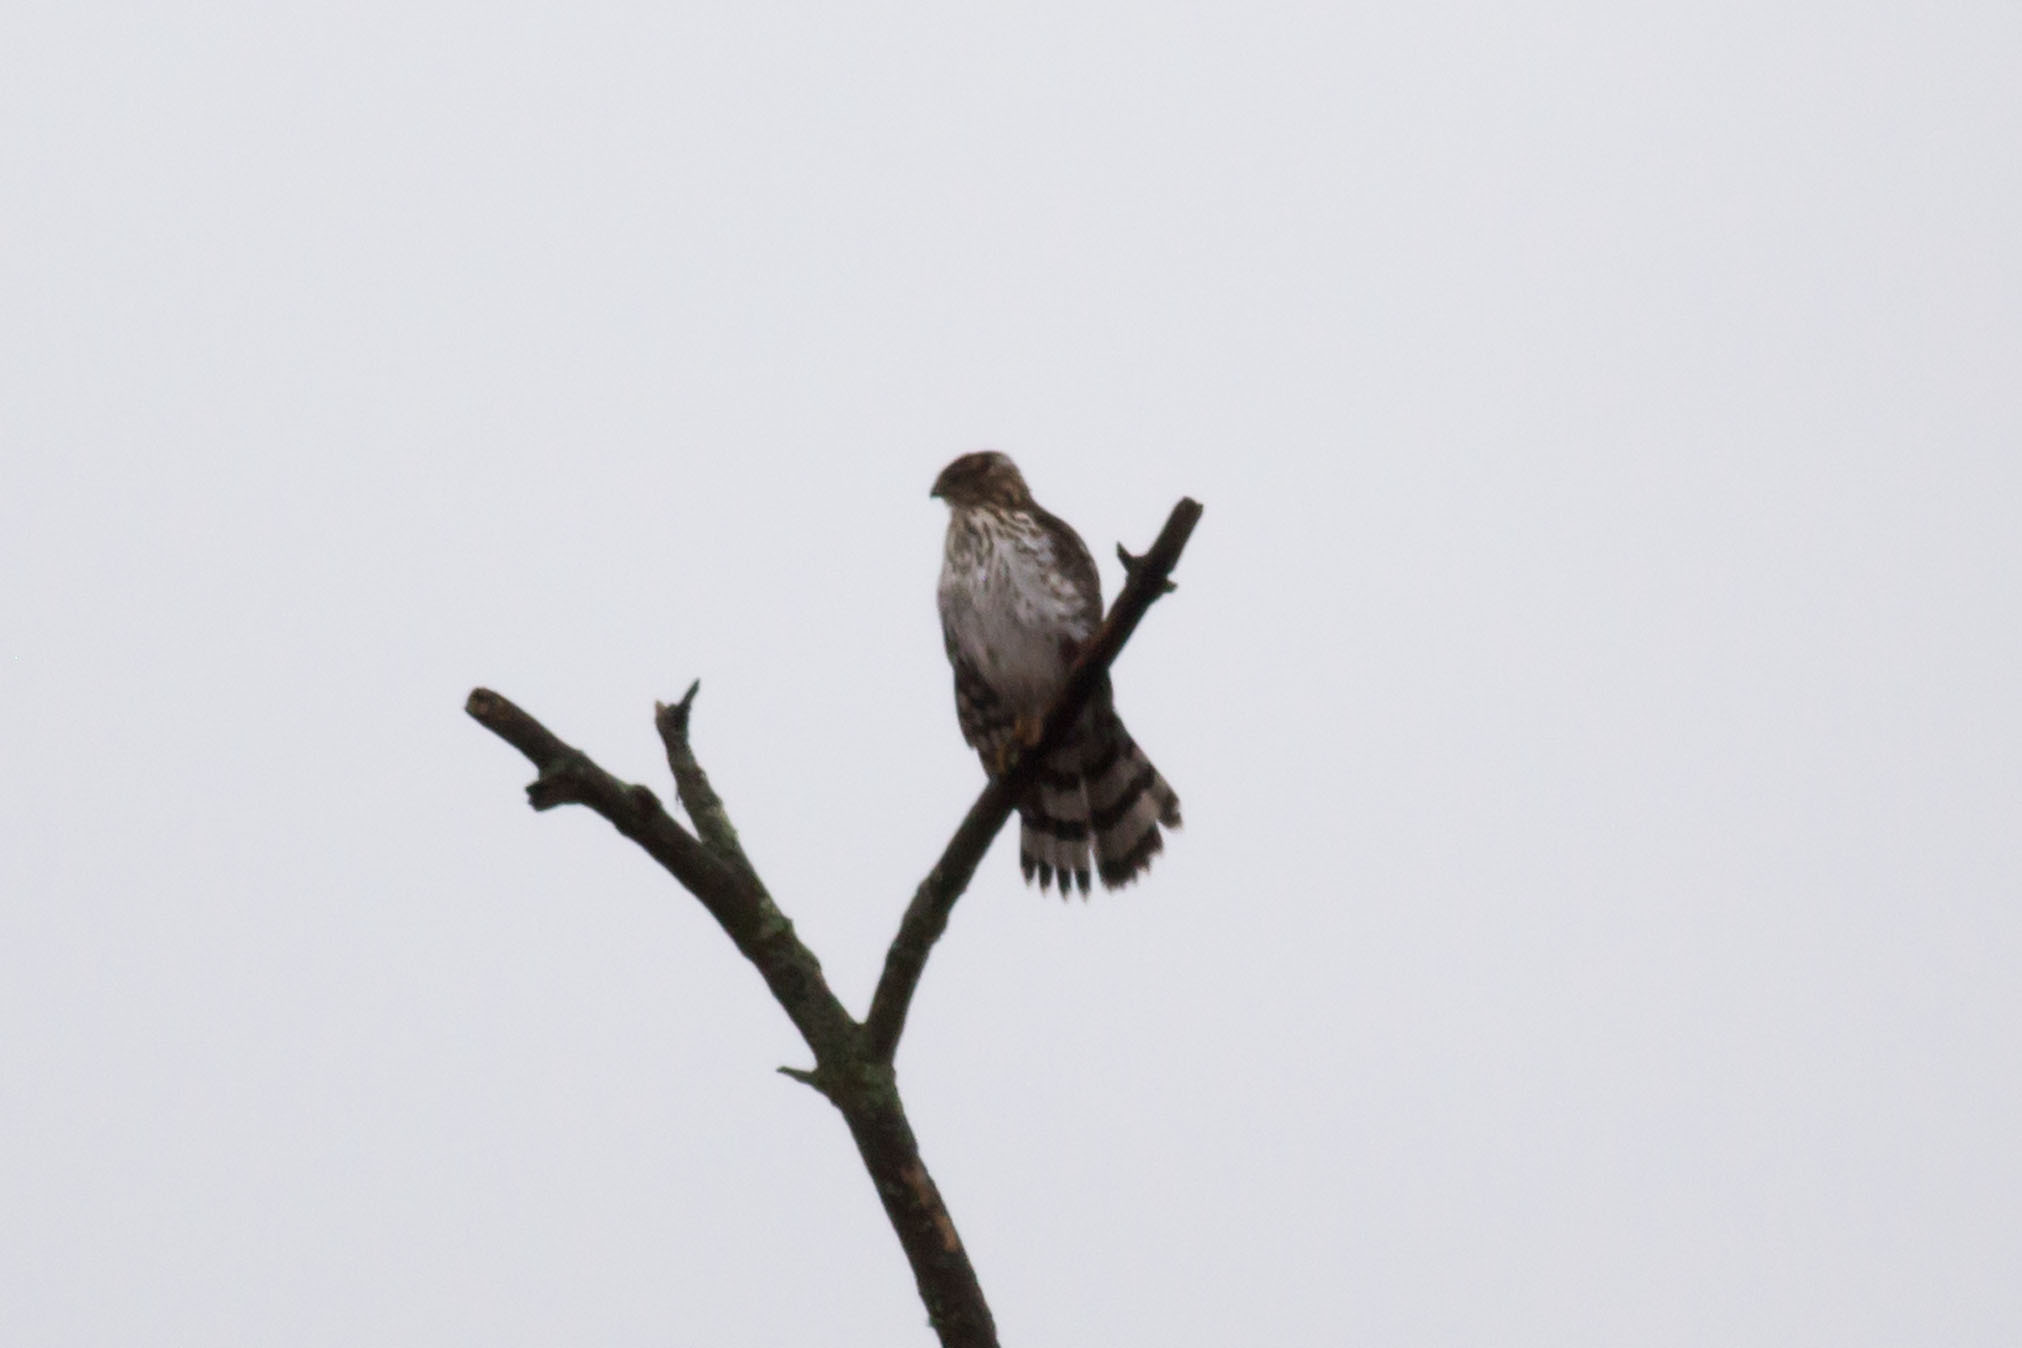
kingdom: Animalia
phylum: Chordata
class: Aves
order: Accipitriformes
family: Accipitridae
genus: Accipiter
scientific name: Accipiter cooperii
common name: Cooper's hawk
